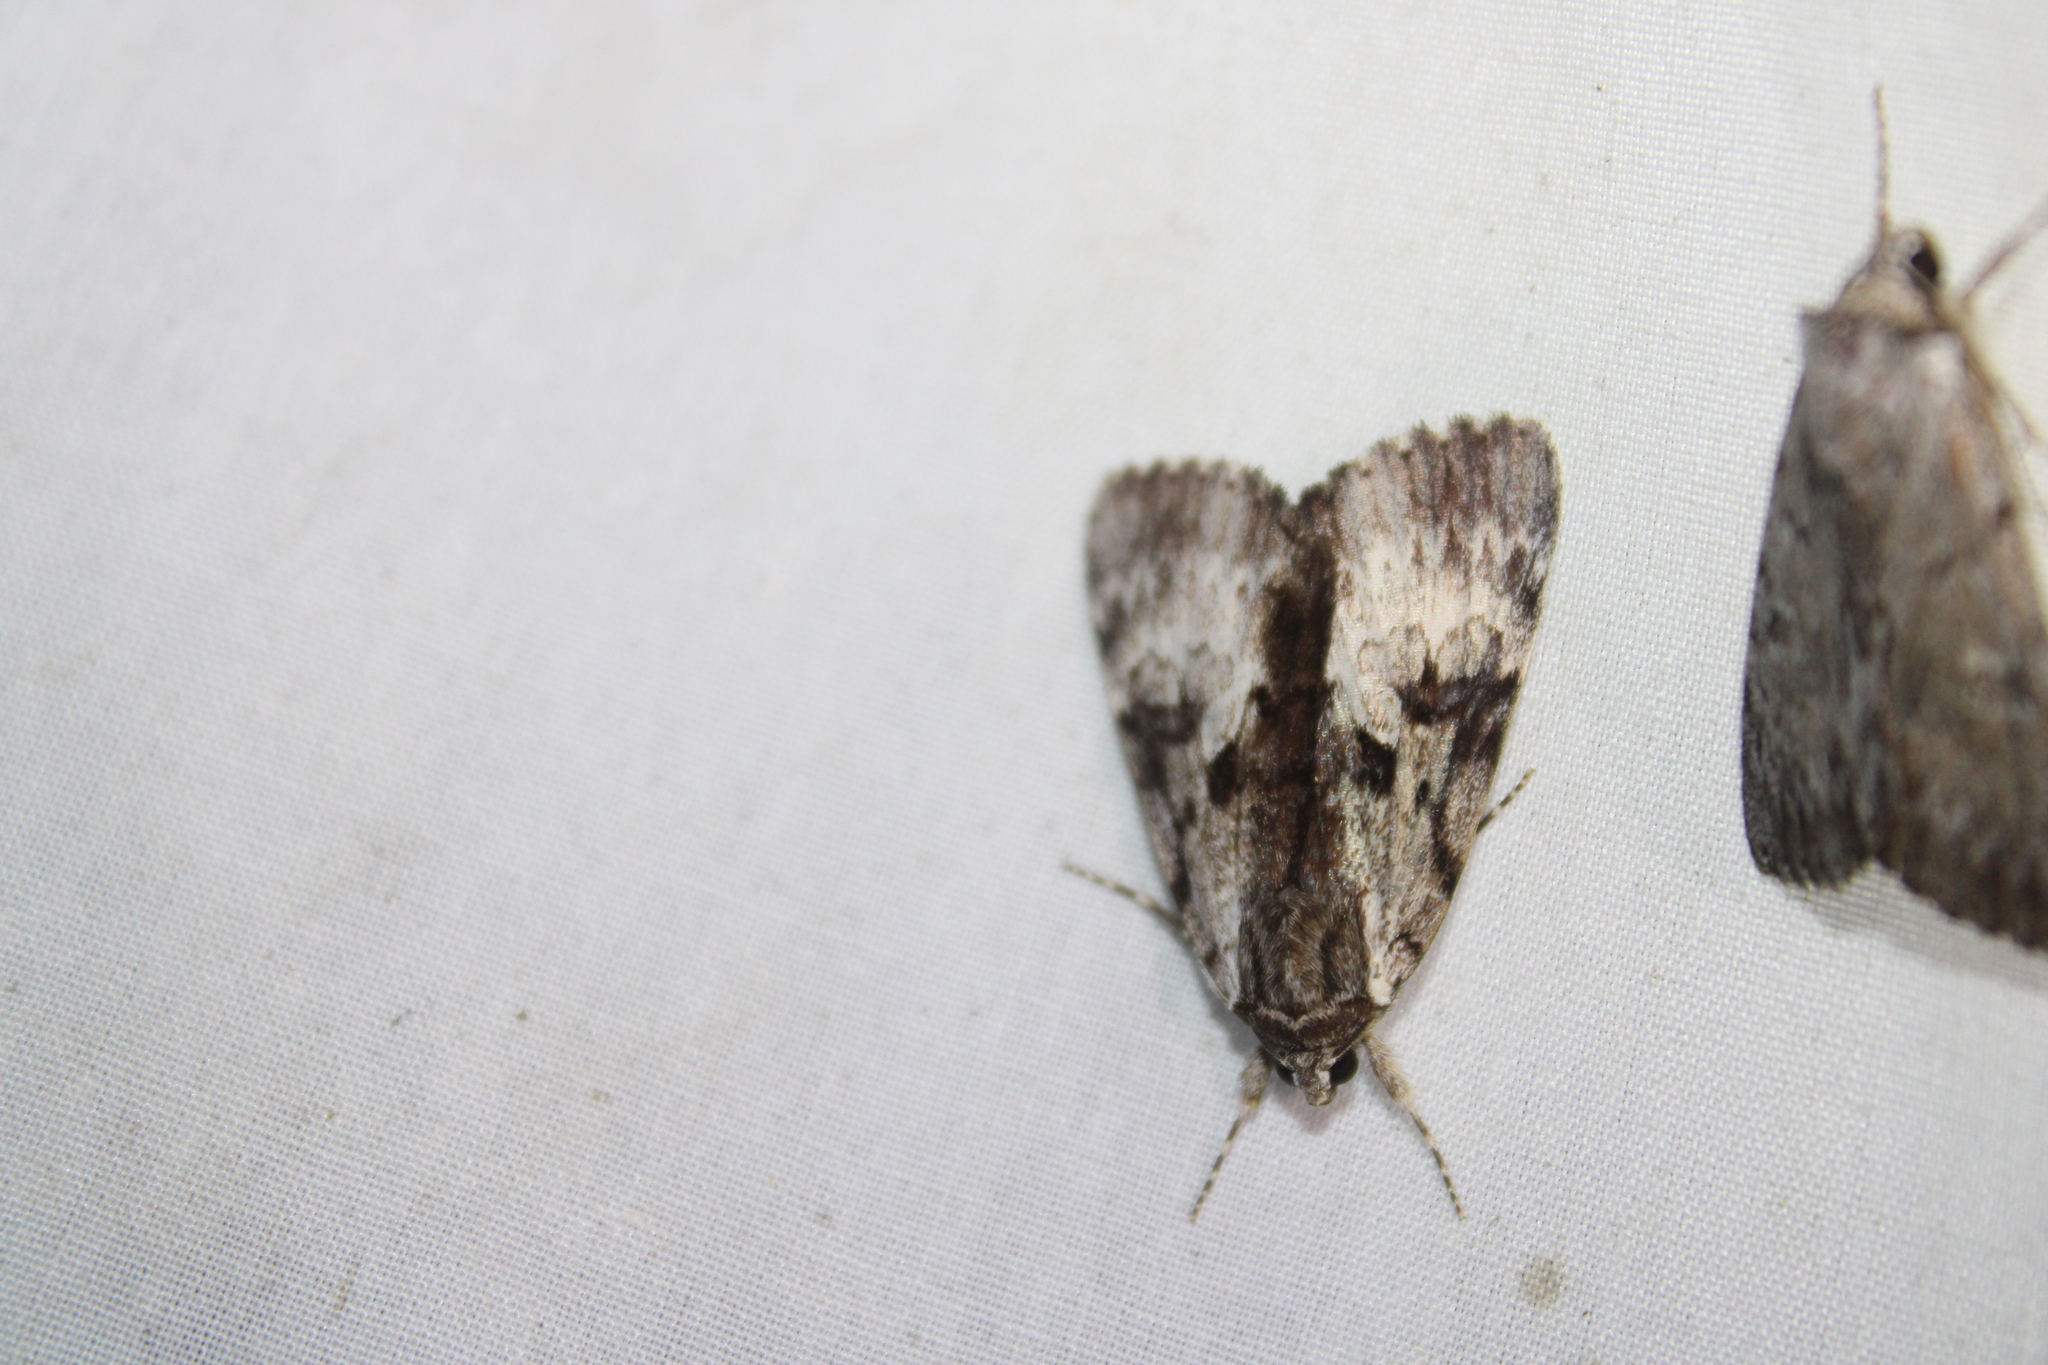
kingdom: Animalia
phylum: Arthropoda
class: Insecta
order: Lepidoptera
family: Erebidae
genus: Catocala
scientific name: Catocala andromedae
